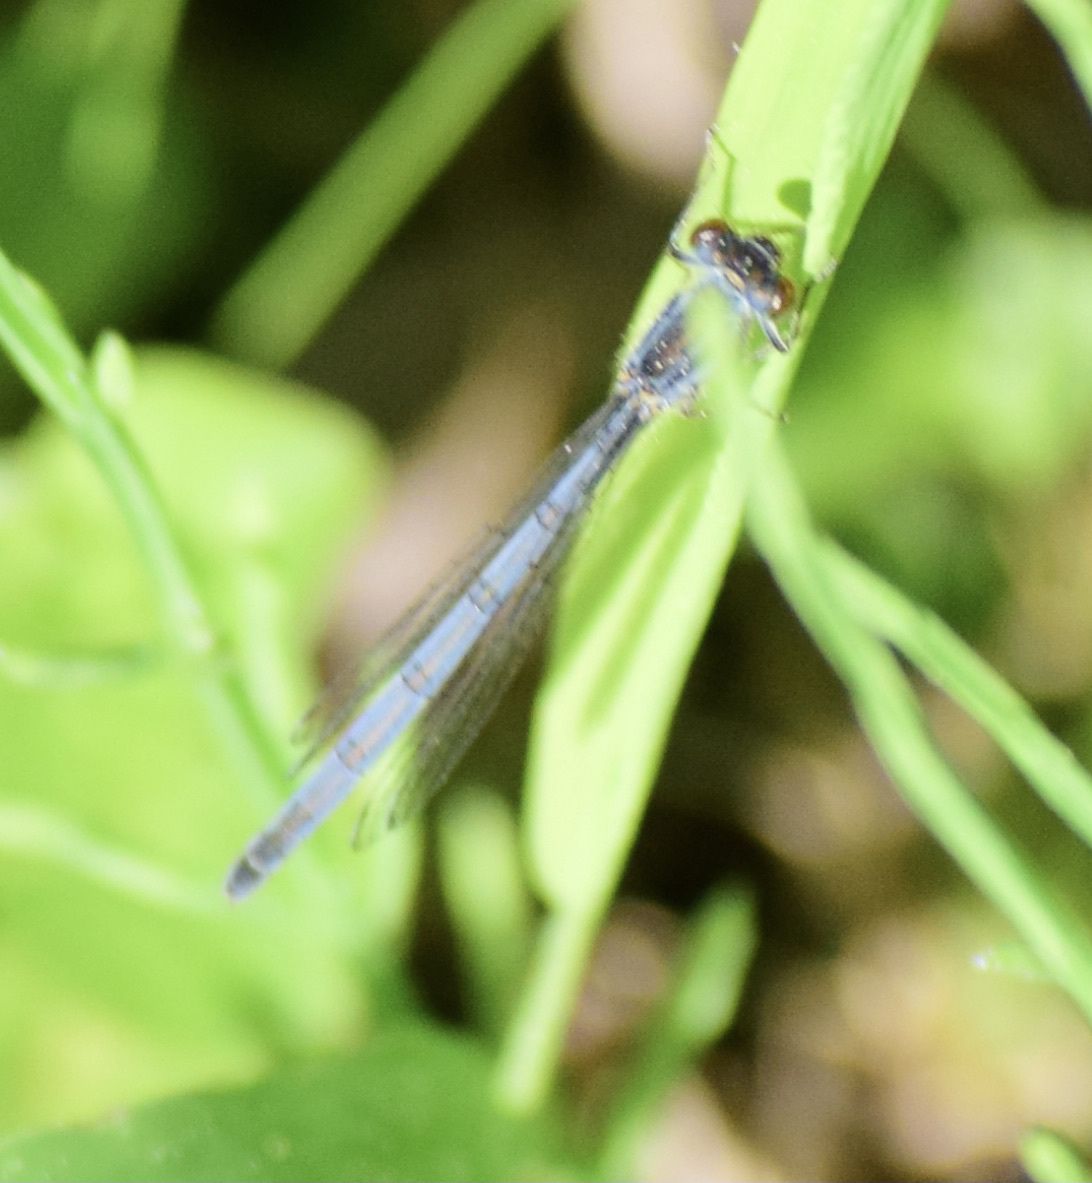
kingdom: Animalia
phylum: Arthropoda
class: Insecta
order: Odonata
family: Coenagrionidae
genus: Ischnura
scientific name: Ischnura verticalis
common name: Eastern forktail
